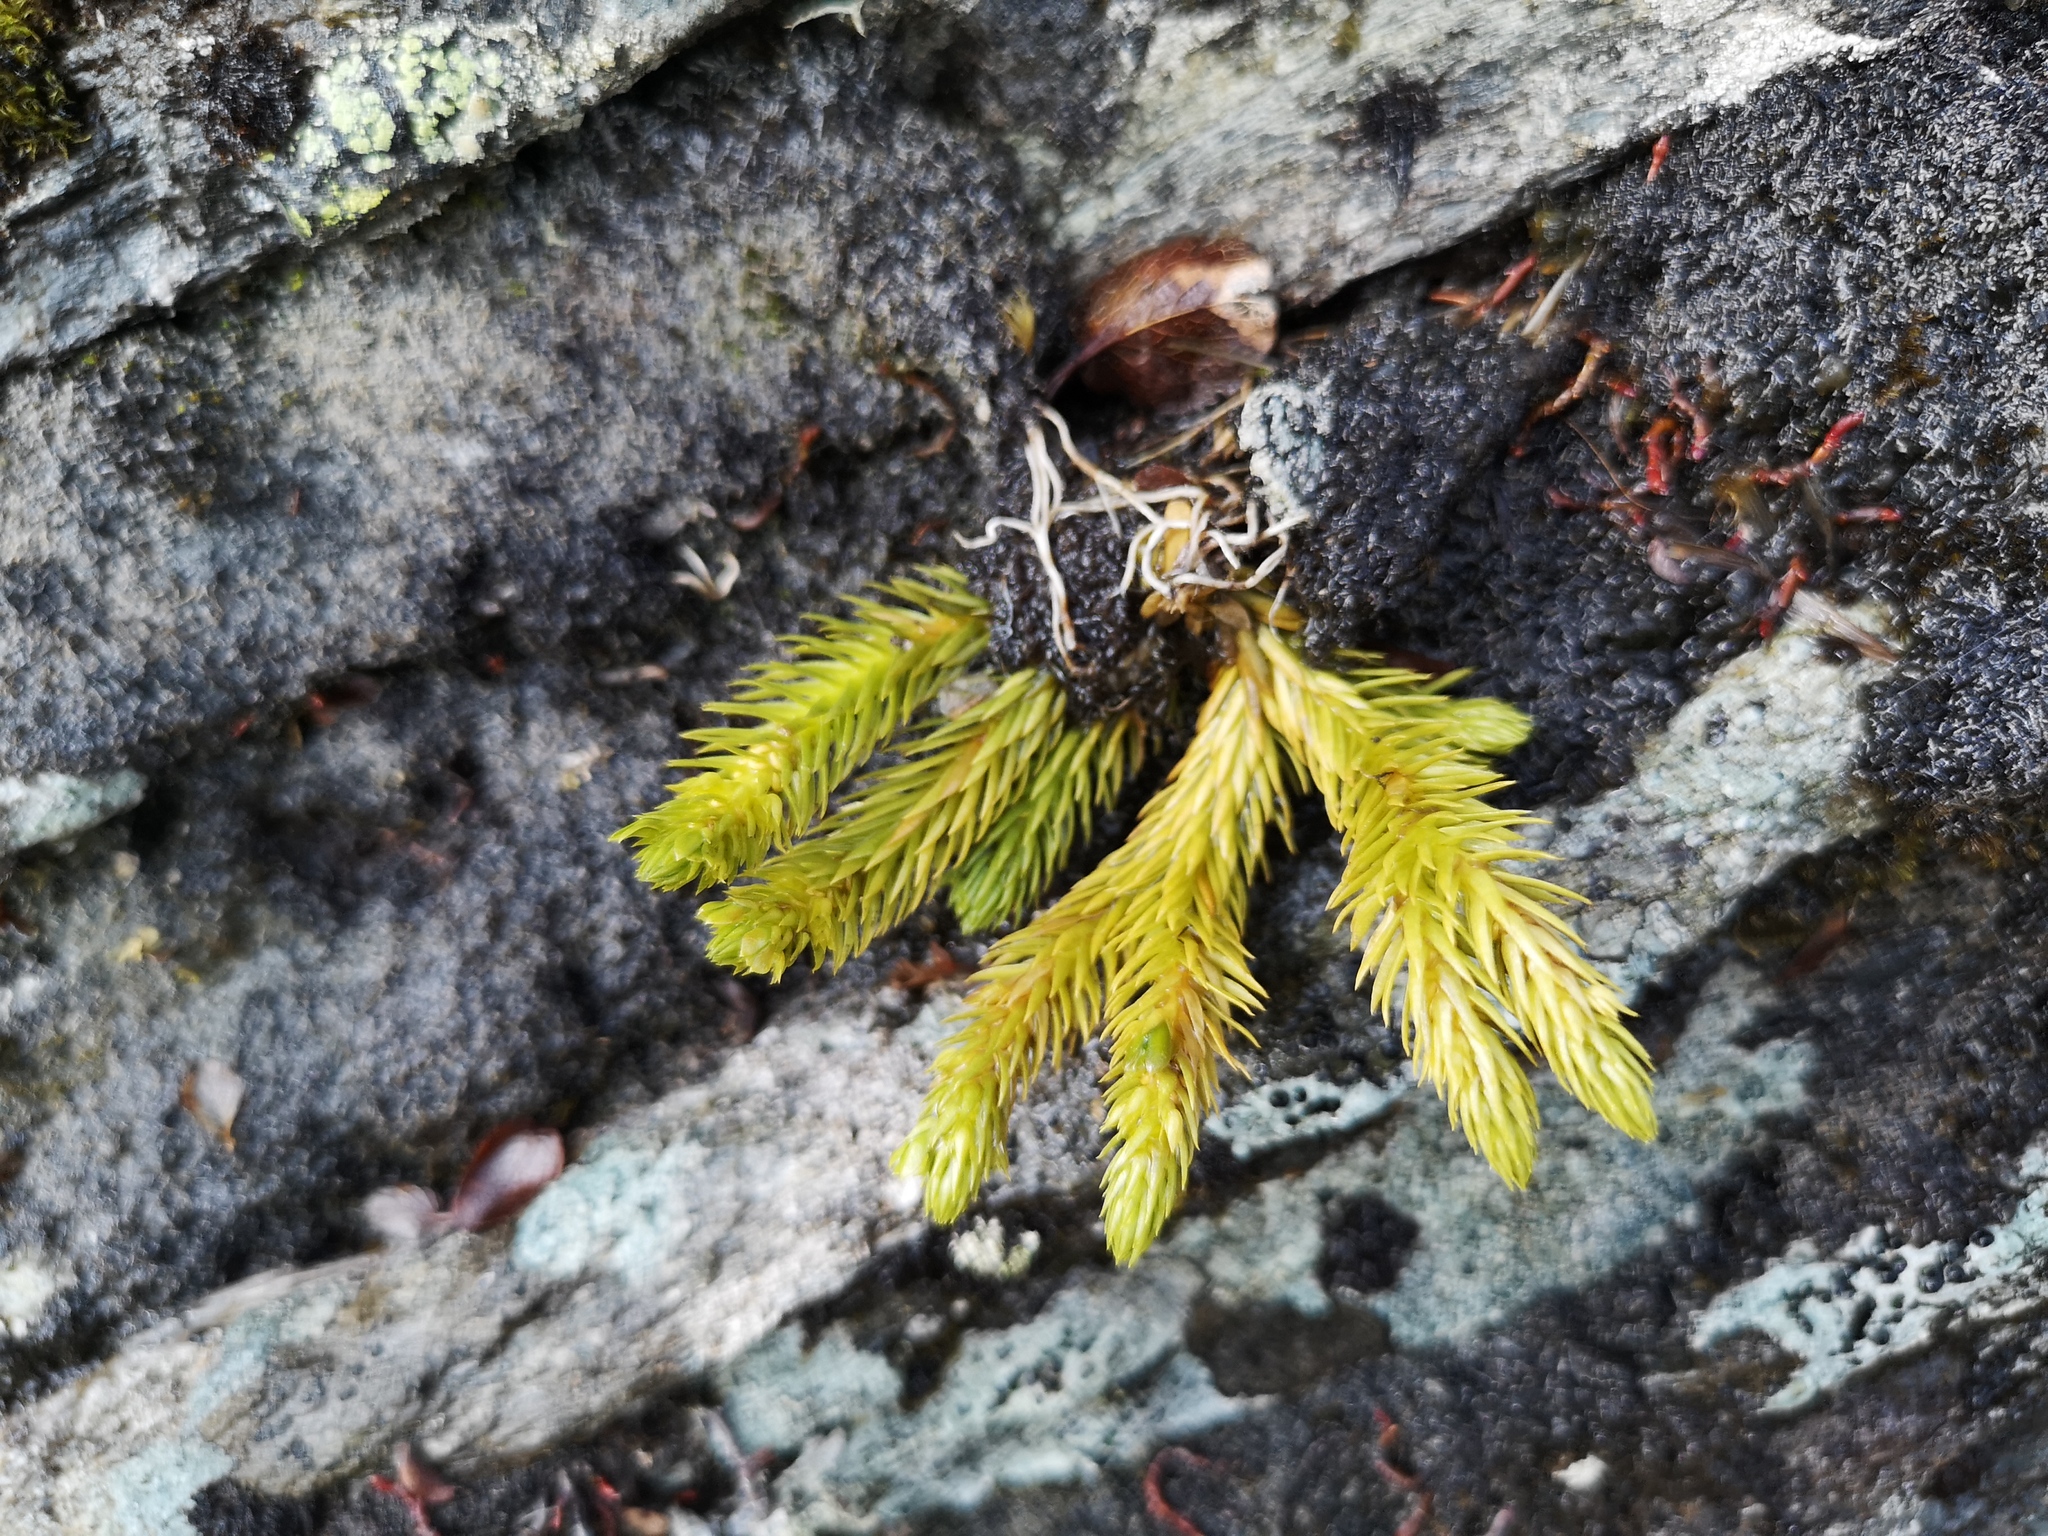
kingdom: Plantae
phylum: Tracheophyta
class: Lycopodiopsida
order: Lycopodiales
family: Lycopodiaceae
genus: Huperzia
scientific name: Huperzia selago
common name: Northern firmoss
